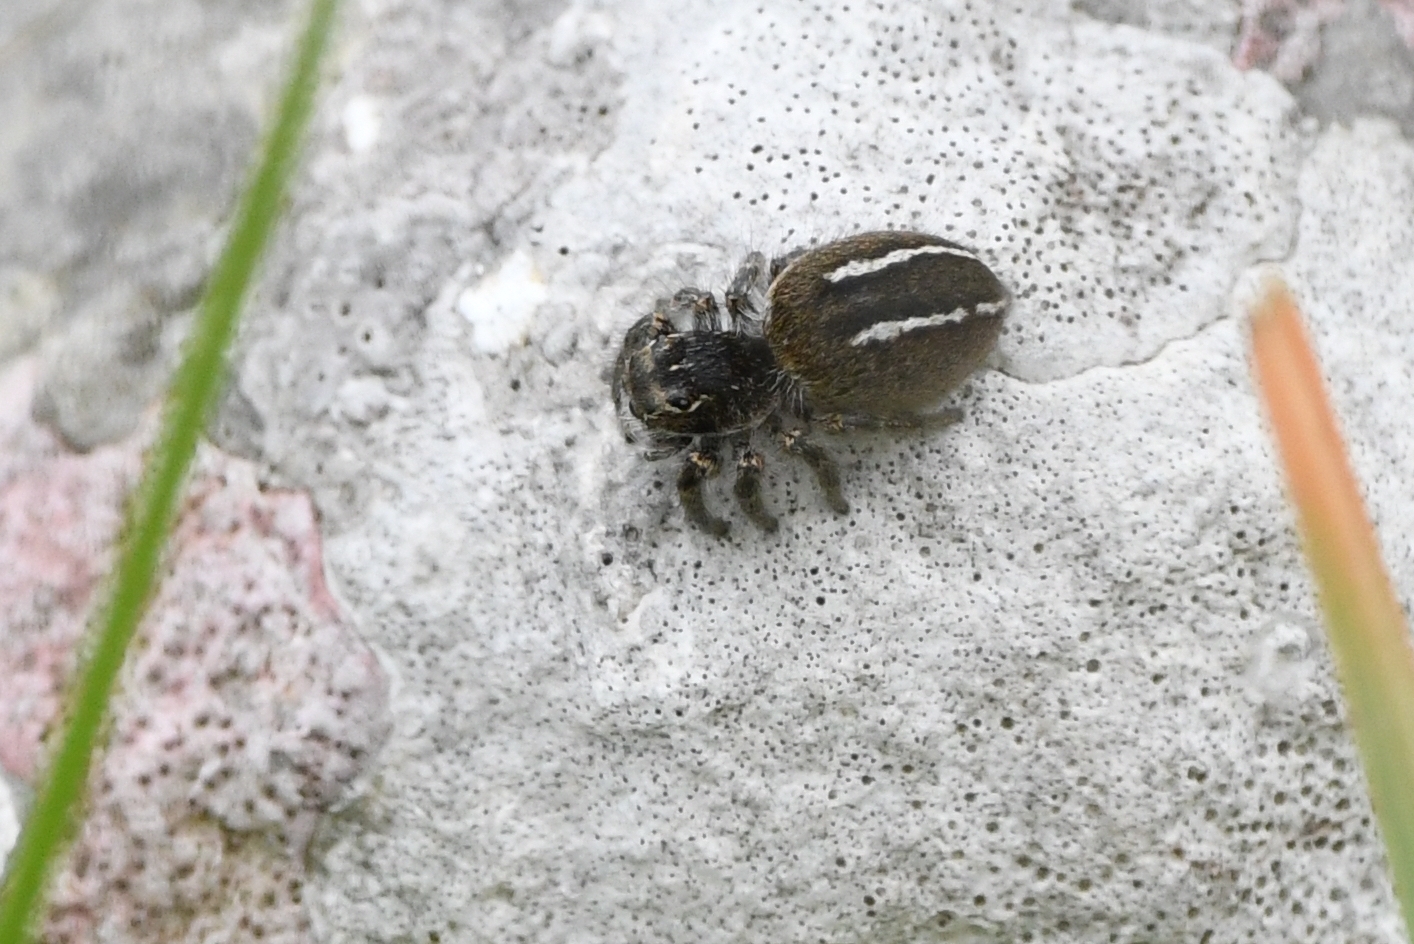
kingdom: Animalia
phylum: Arthropoda
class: Arachnida
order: Araneae
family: Salticidae
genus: Philaeus
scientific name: Philaeus chrysops
